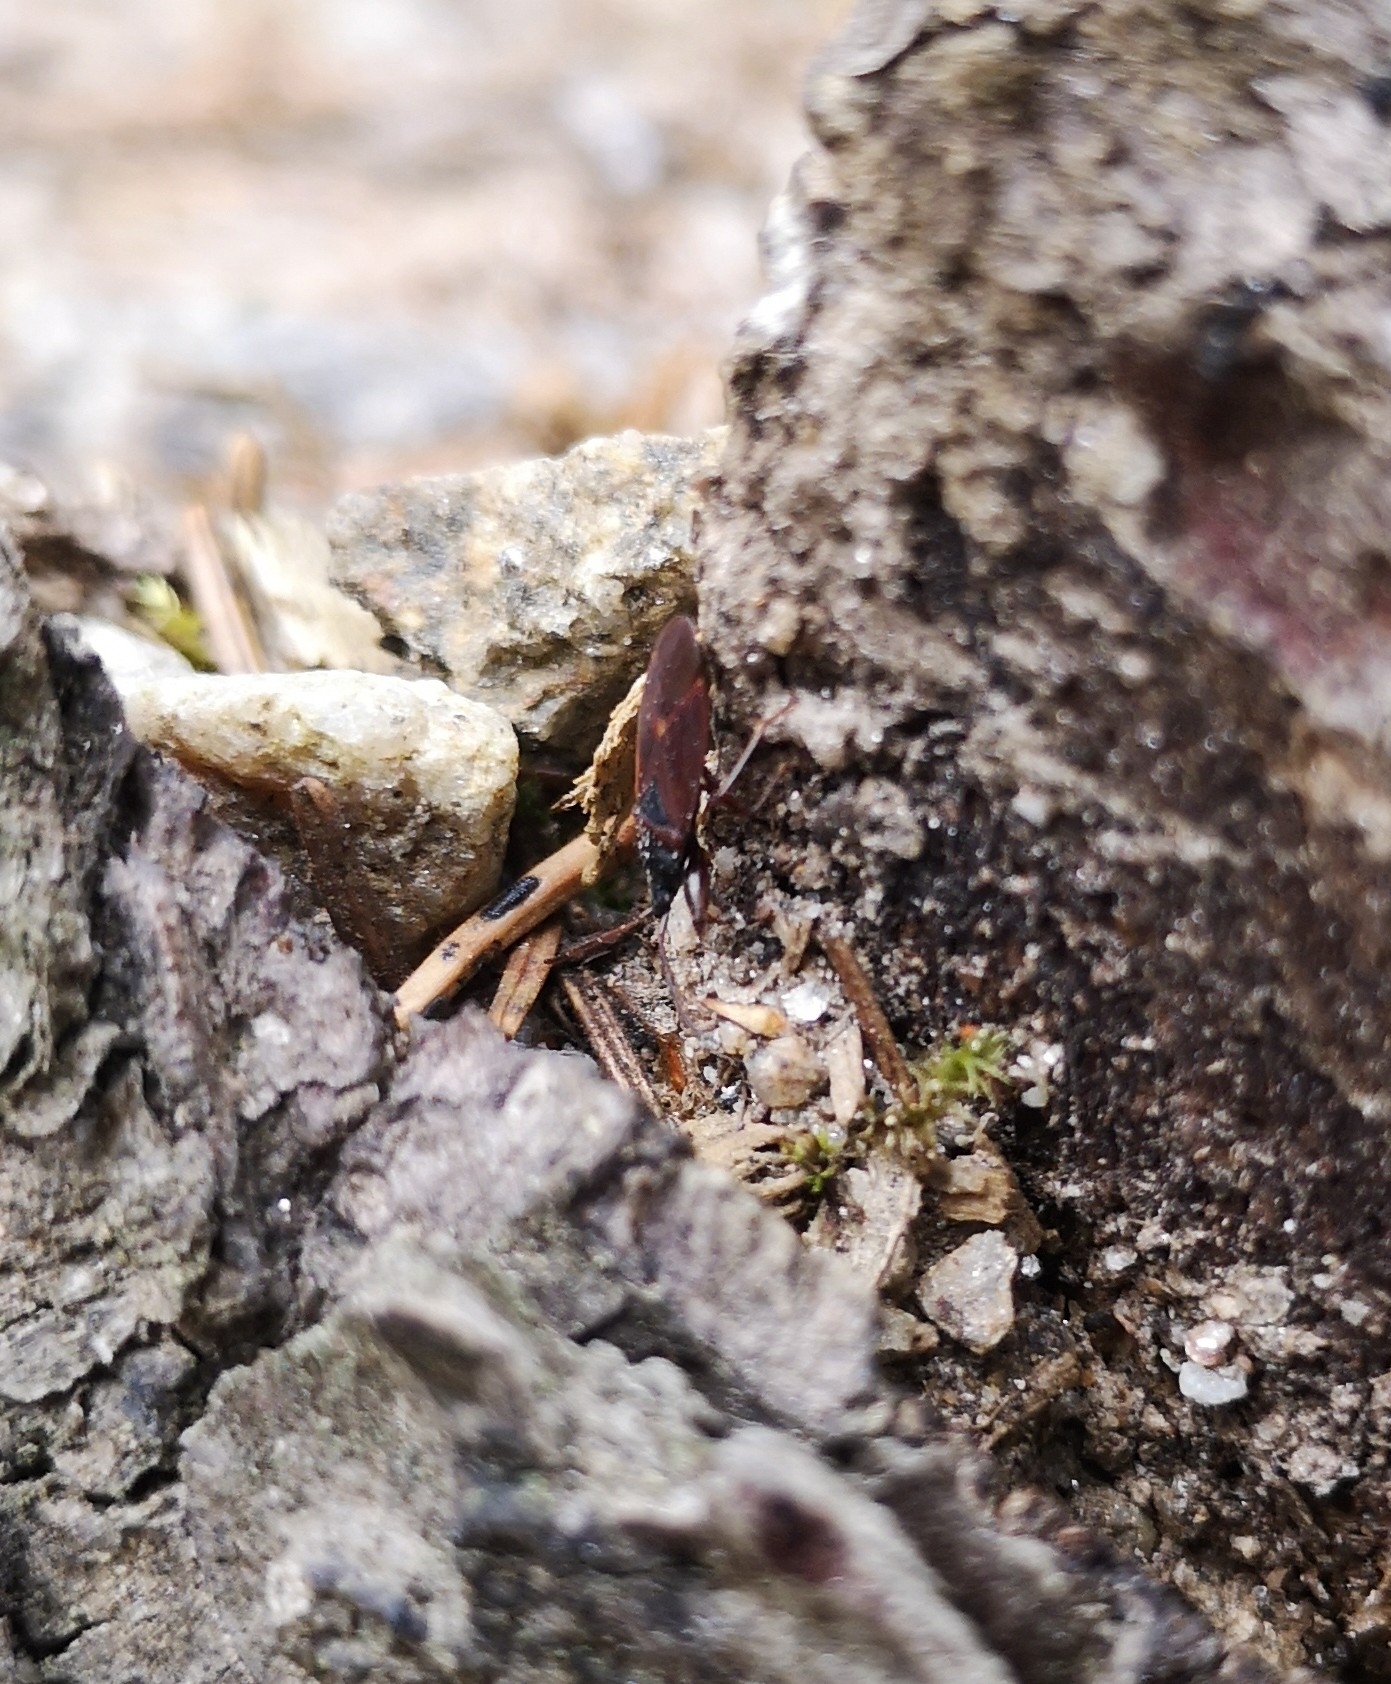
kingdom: Animalia
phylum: Arthropoda
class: Insecta
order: Hemiptera
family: Rhyparochromidae
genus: Gastrodes
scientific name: Gastrodes grossipes
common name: Pine cone bug
